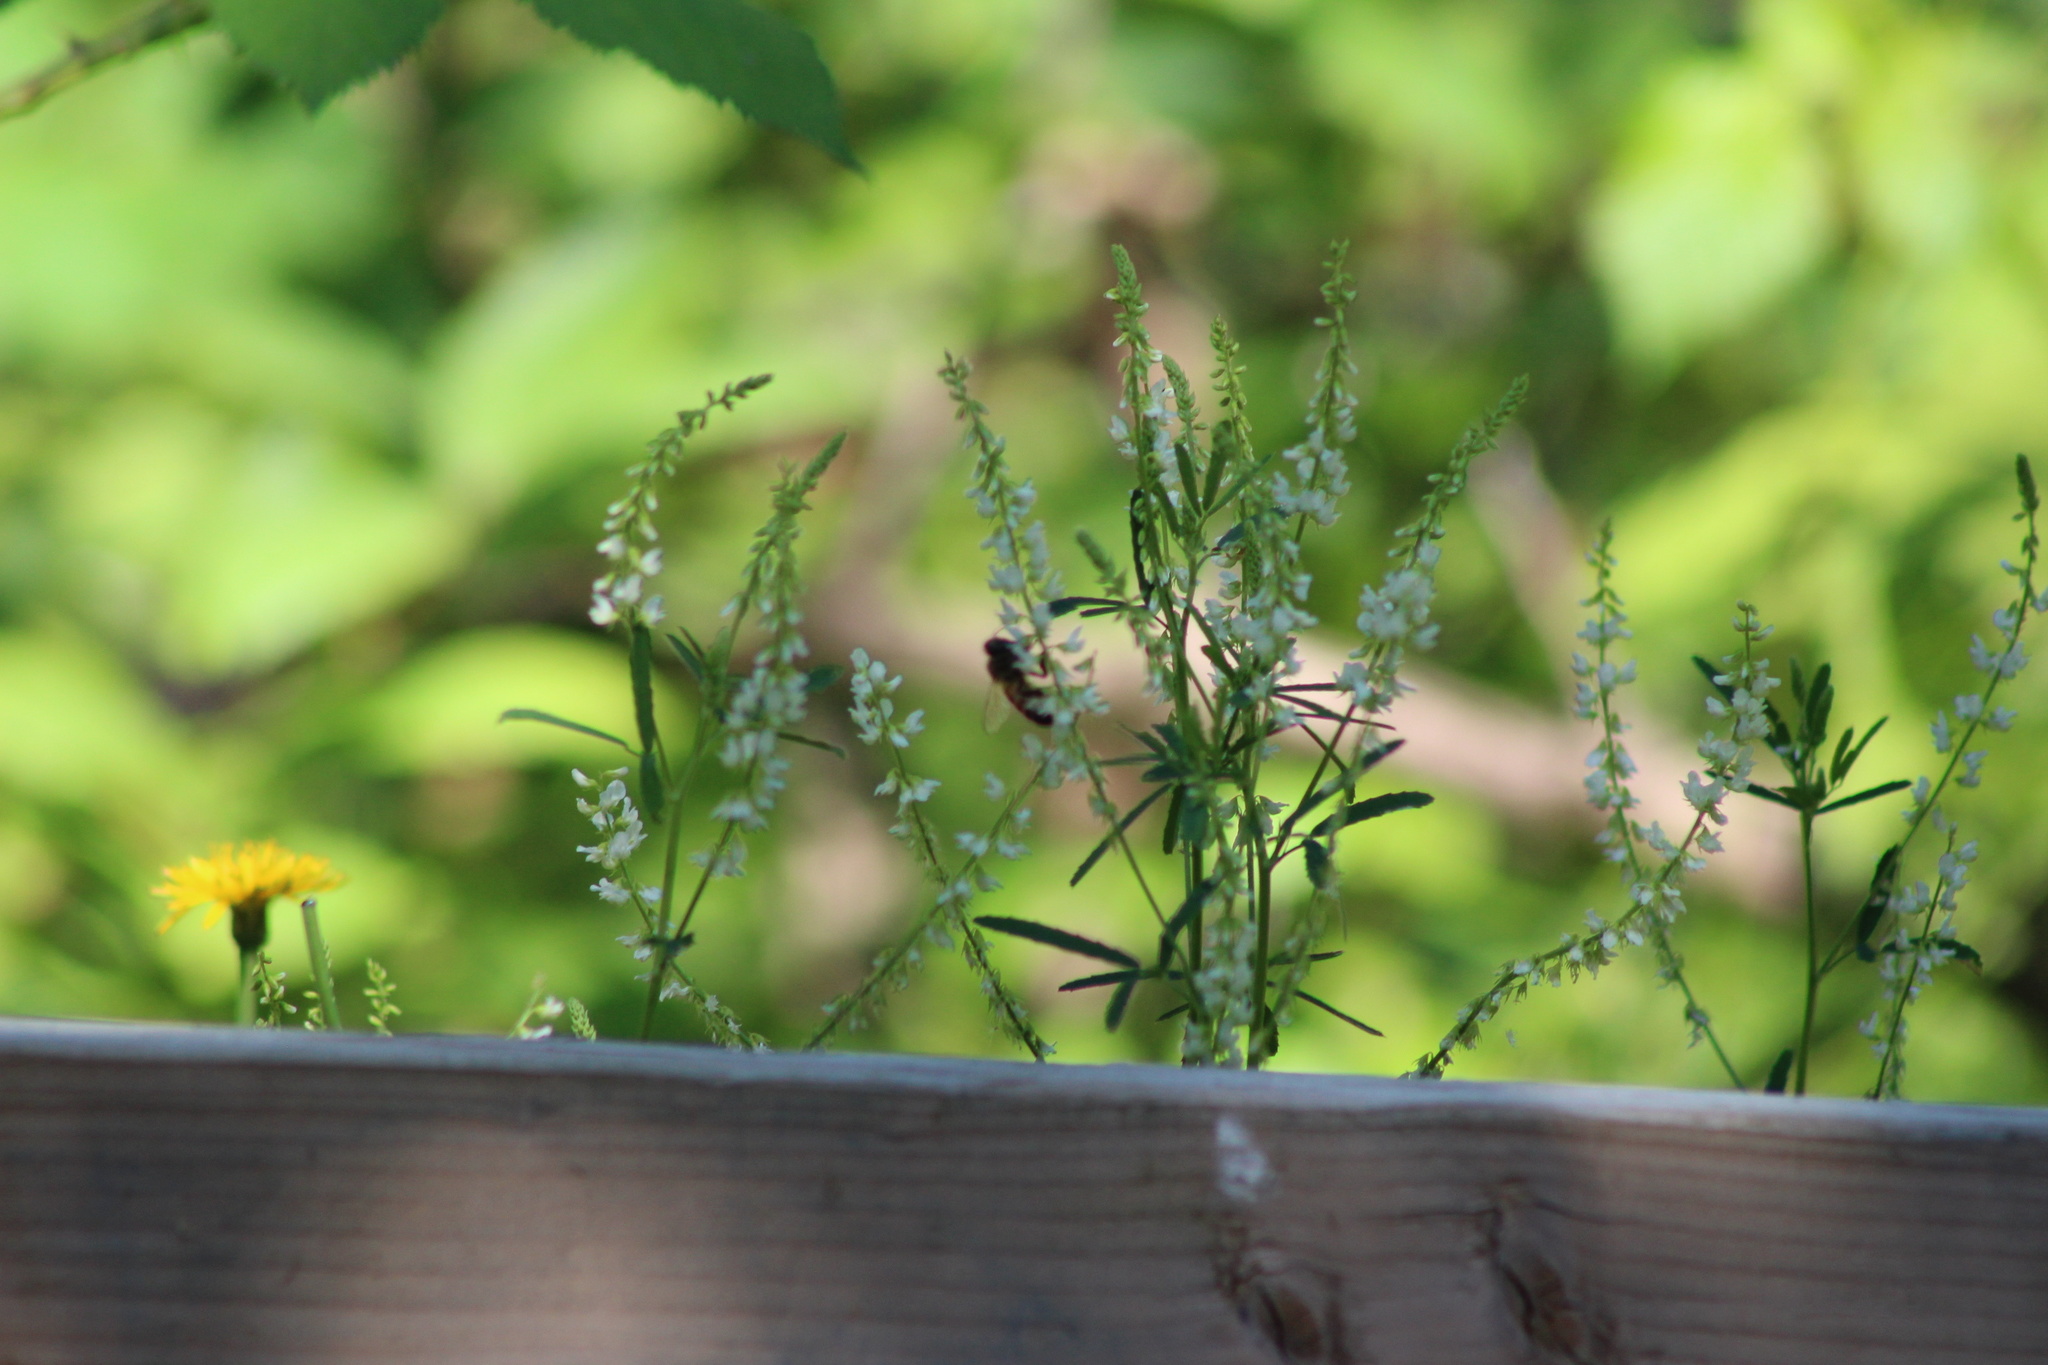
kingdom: Plantae
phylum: Tracheophyta
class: Magnoliopsida
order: Fabales
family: Fabaceae
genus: Melilotus
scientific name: Melilotus albus
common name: White melilot
